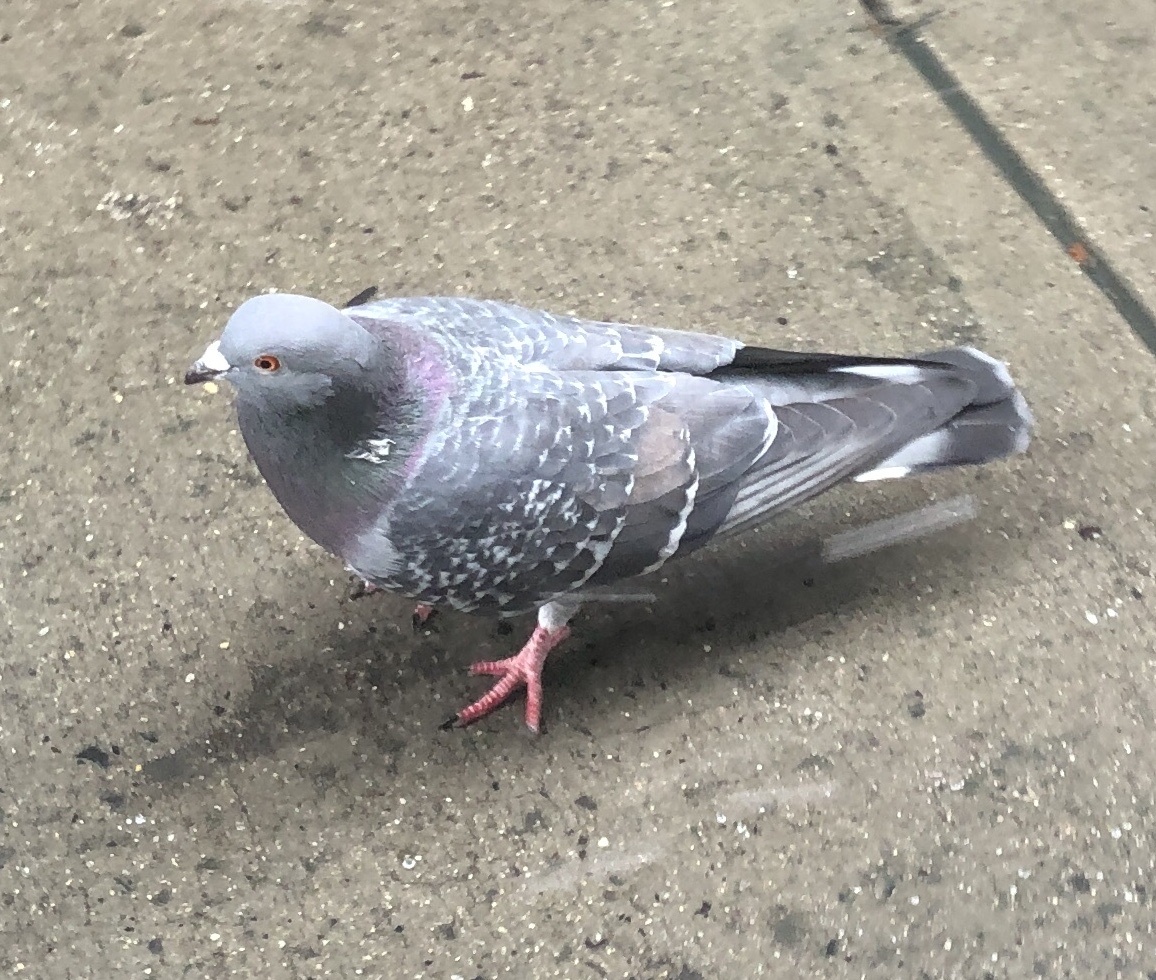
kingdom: Animalia
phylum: Chordata
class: Aves
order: Columbiformes
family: Columbidae
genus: Columba
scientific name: Columba livia
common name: Rock pigeon
